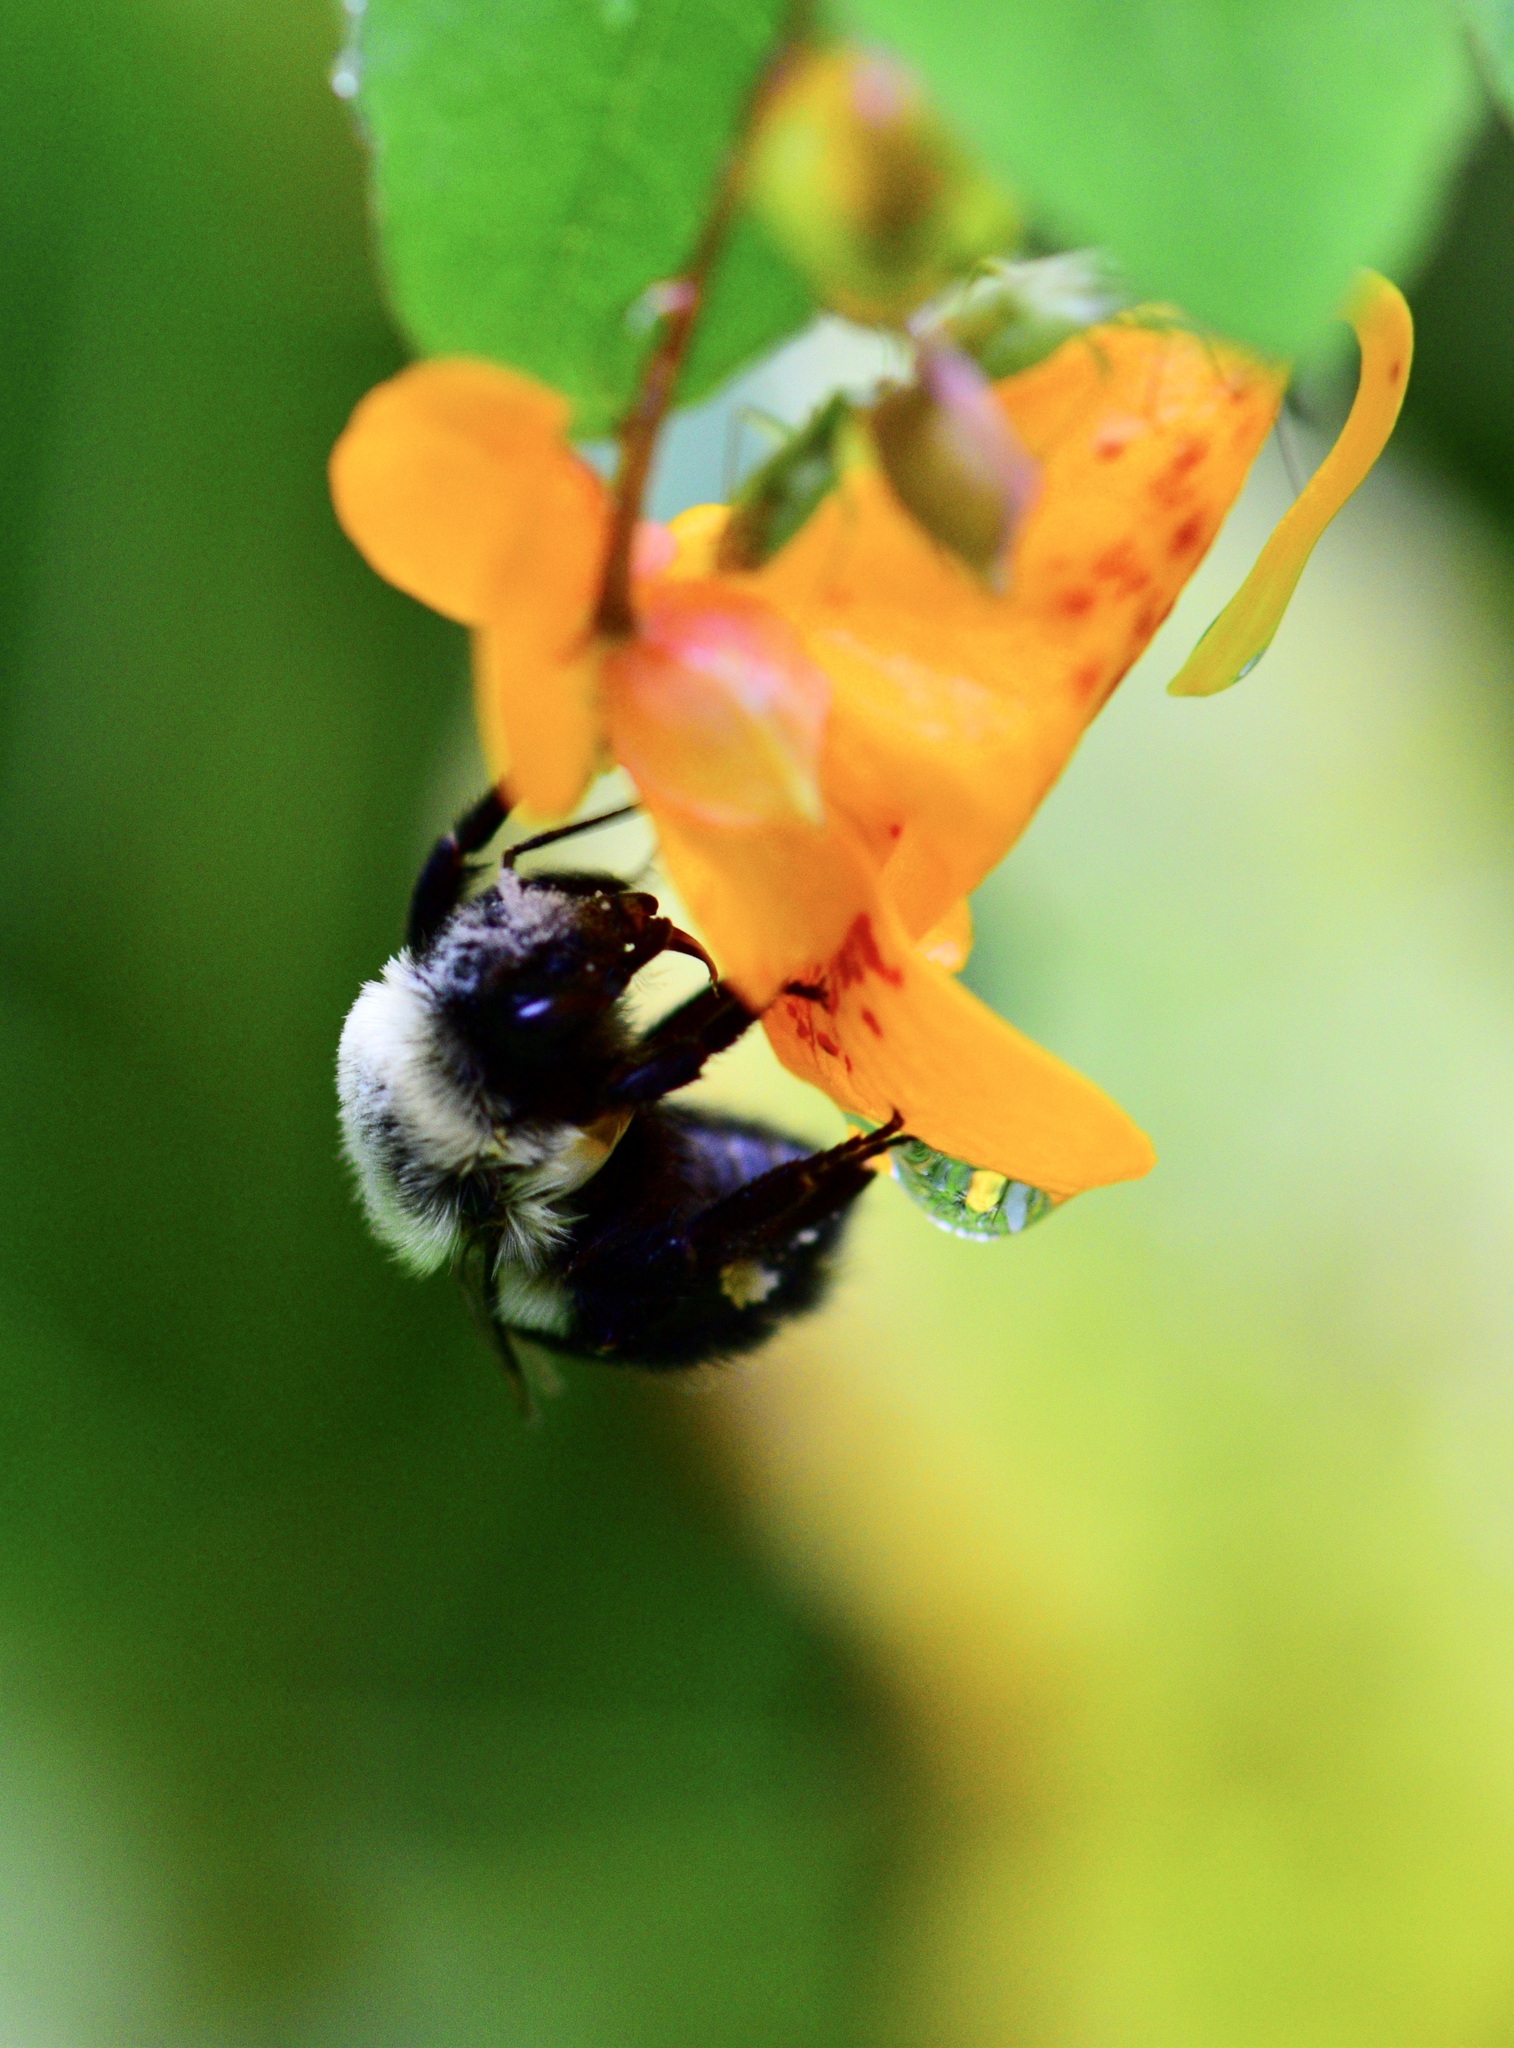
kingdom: Animalia
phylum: Arthropoda
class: Insecta
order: Hymenoptera
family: Apidae
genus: Bombus
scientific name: Bombus impatiens
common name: Common eastern bumble bee
